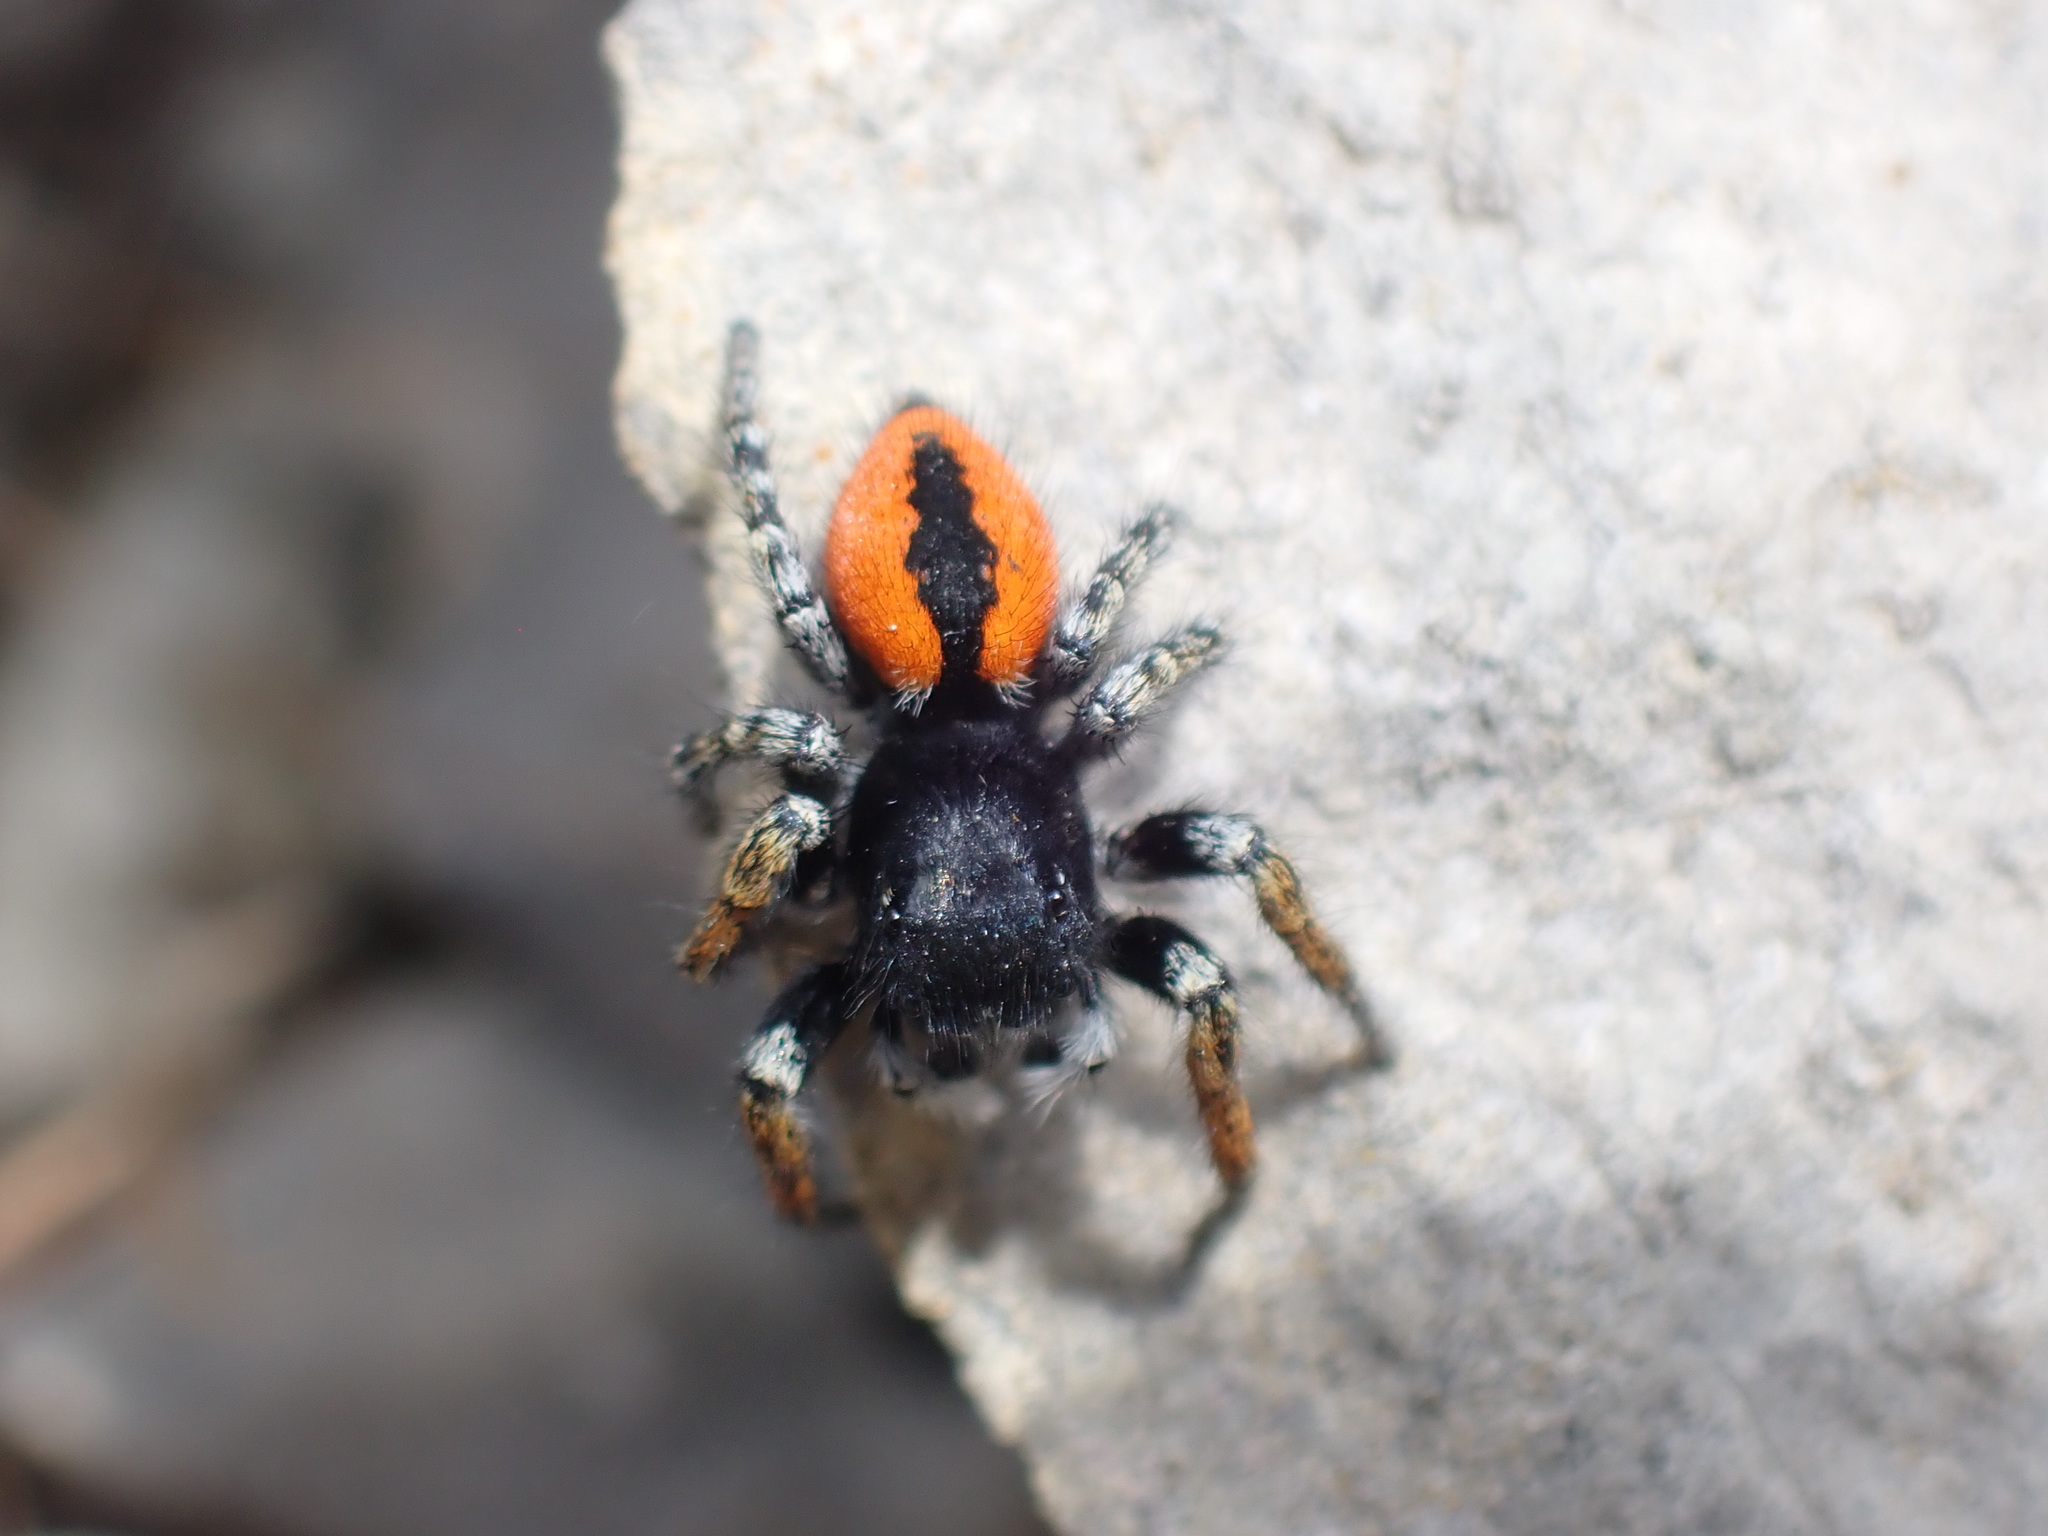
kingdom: Animalia
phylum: Arthropoda
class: Arachnida
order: Araneae
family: Salticidae
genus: Philaeus
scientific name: Philaeus chrysops
